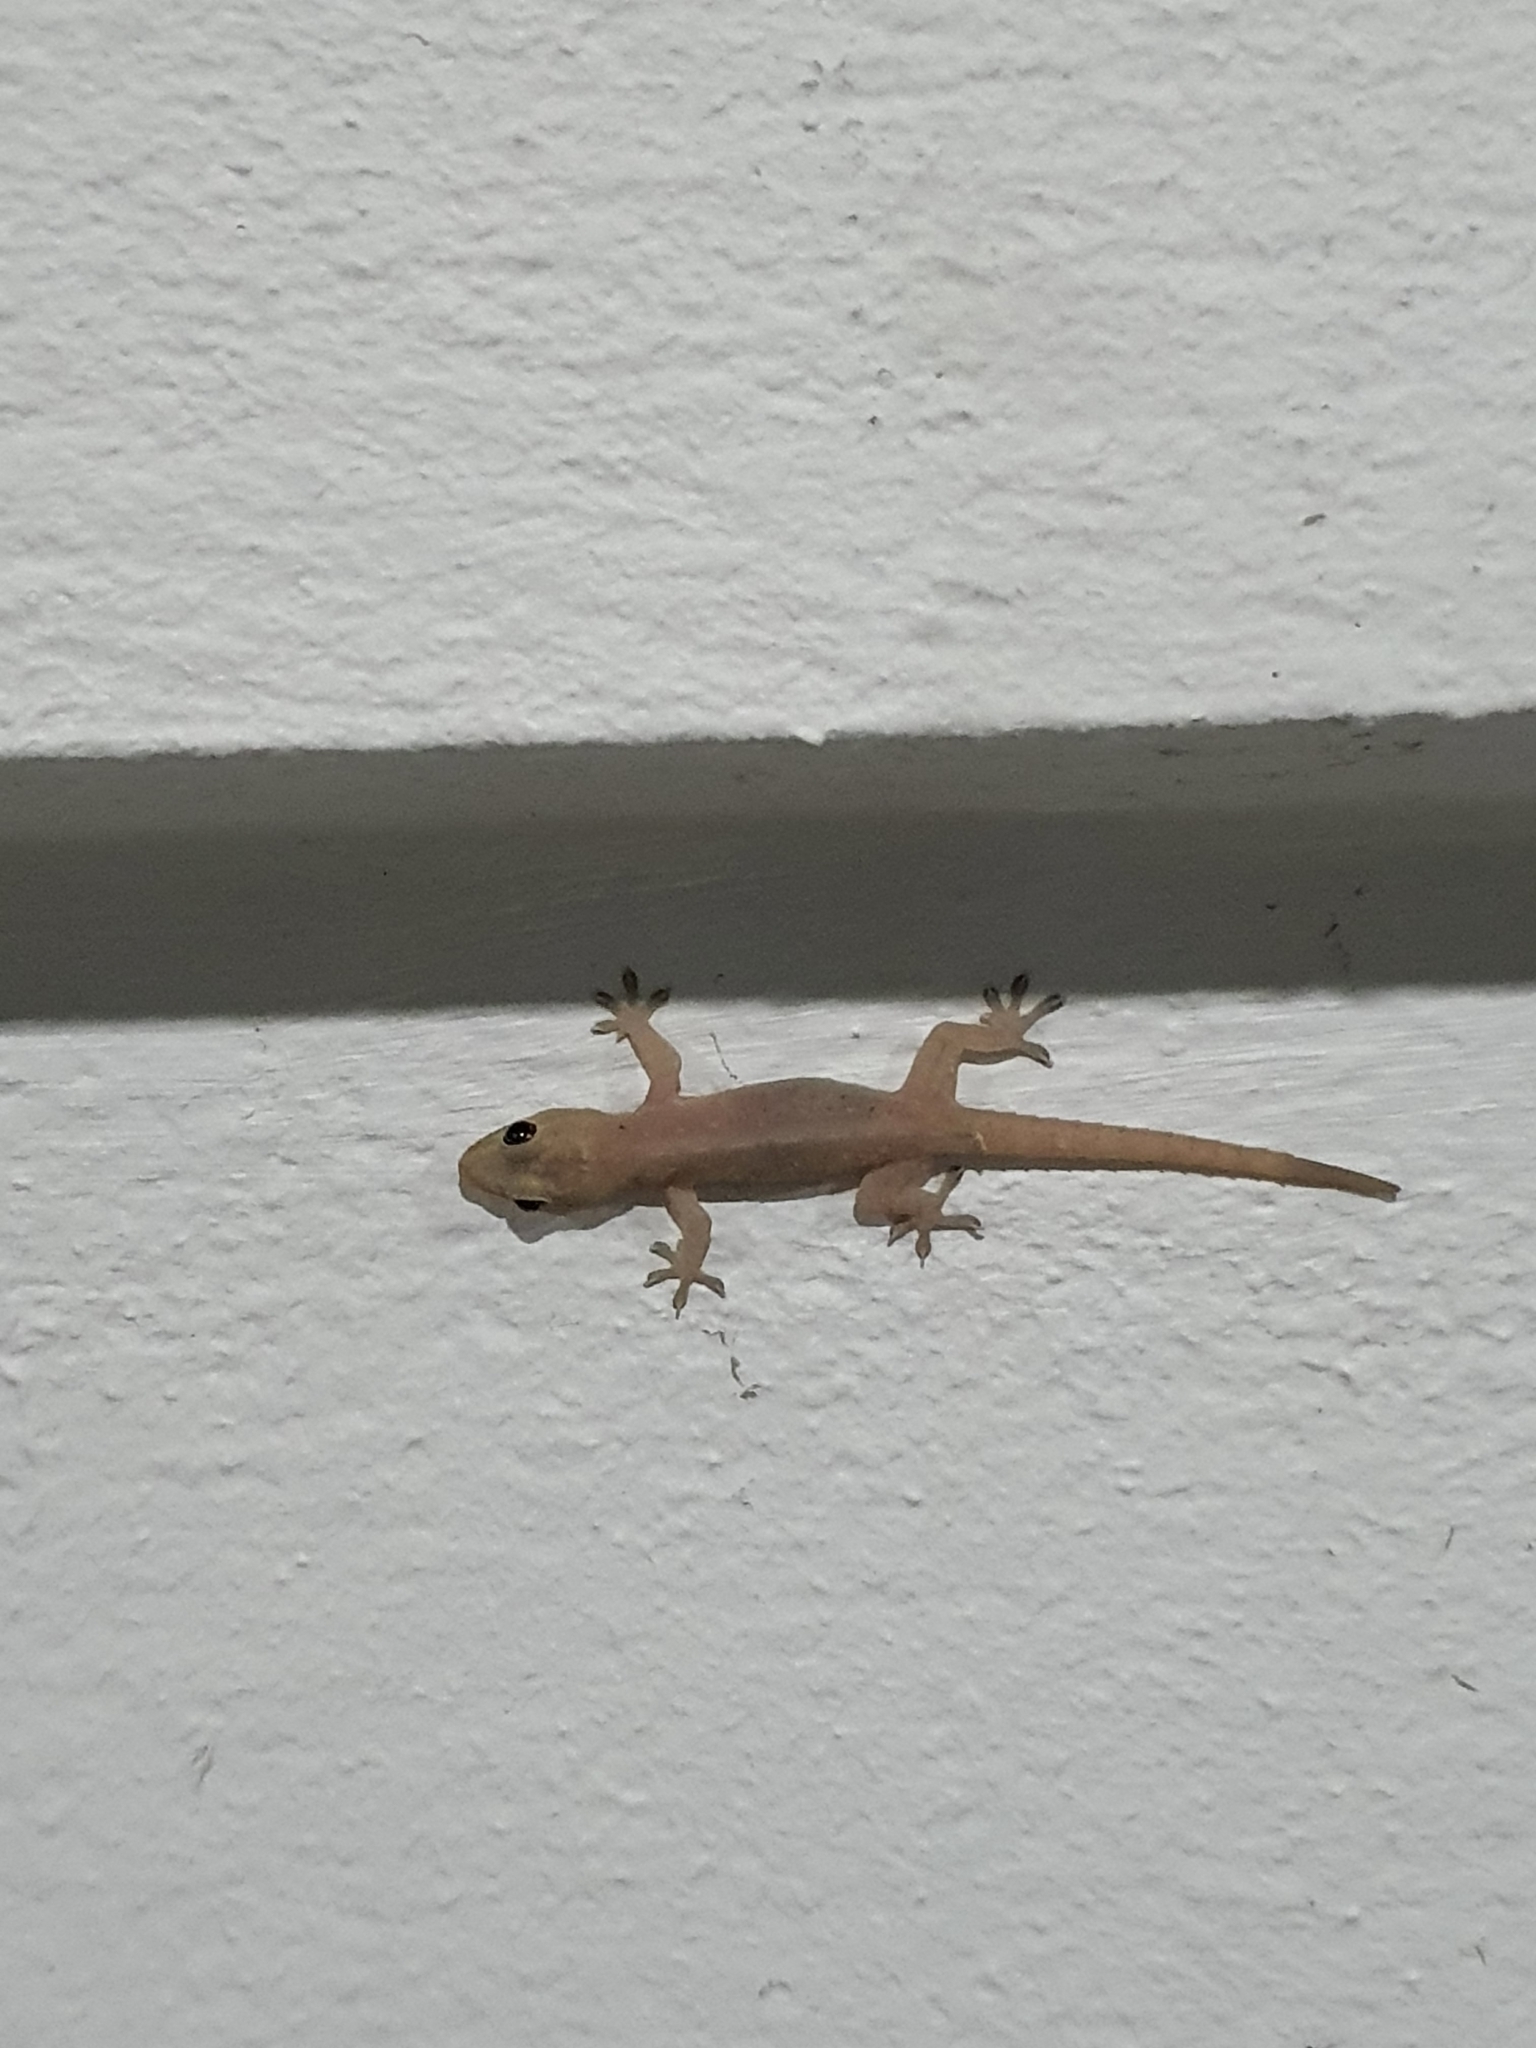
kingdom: Animalia
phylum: Chordata
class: Squamata
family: Gekkonidae
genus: Hemidactylus
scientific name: Hemidactylus frenatus
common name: Common house gecko
